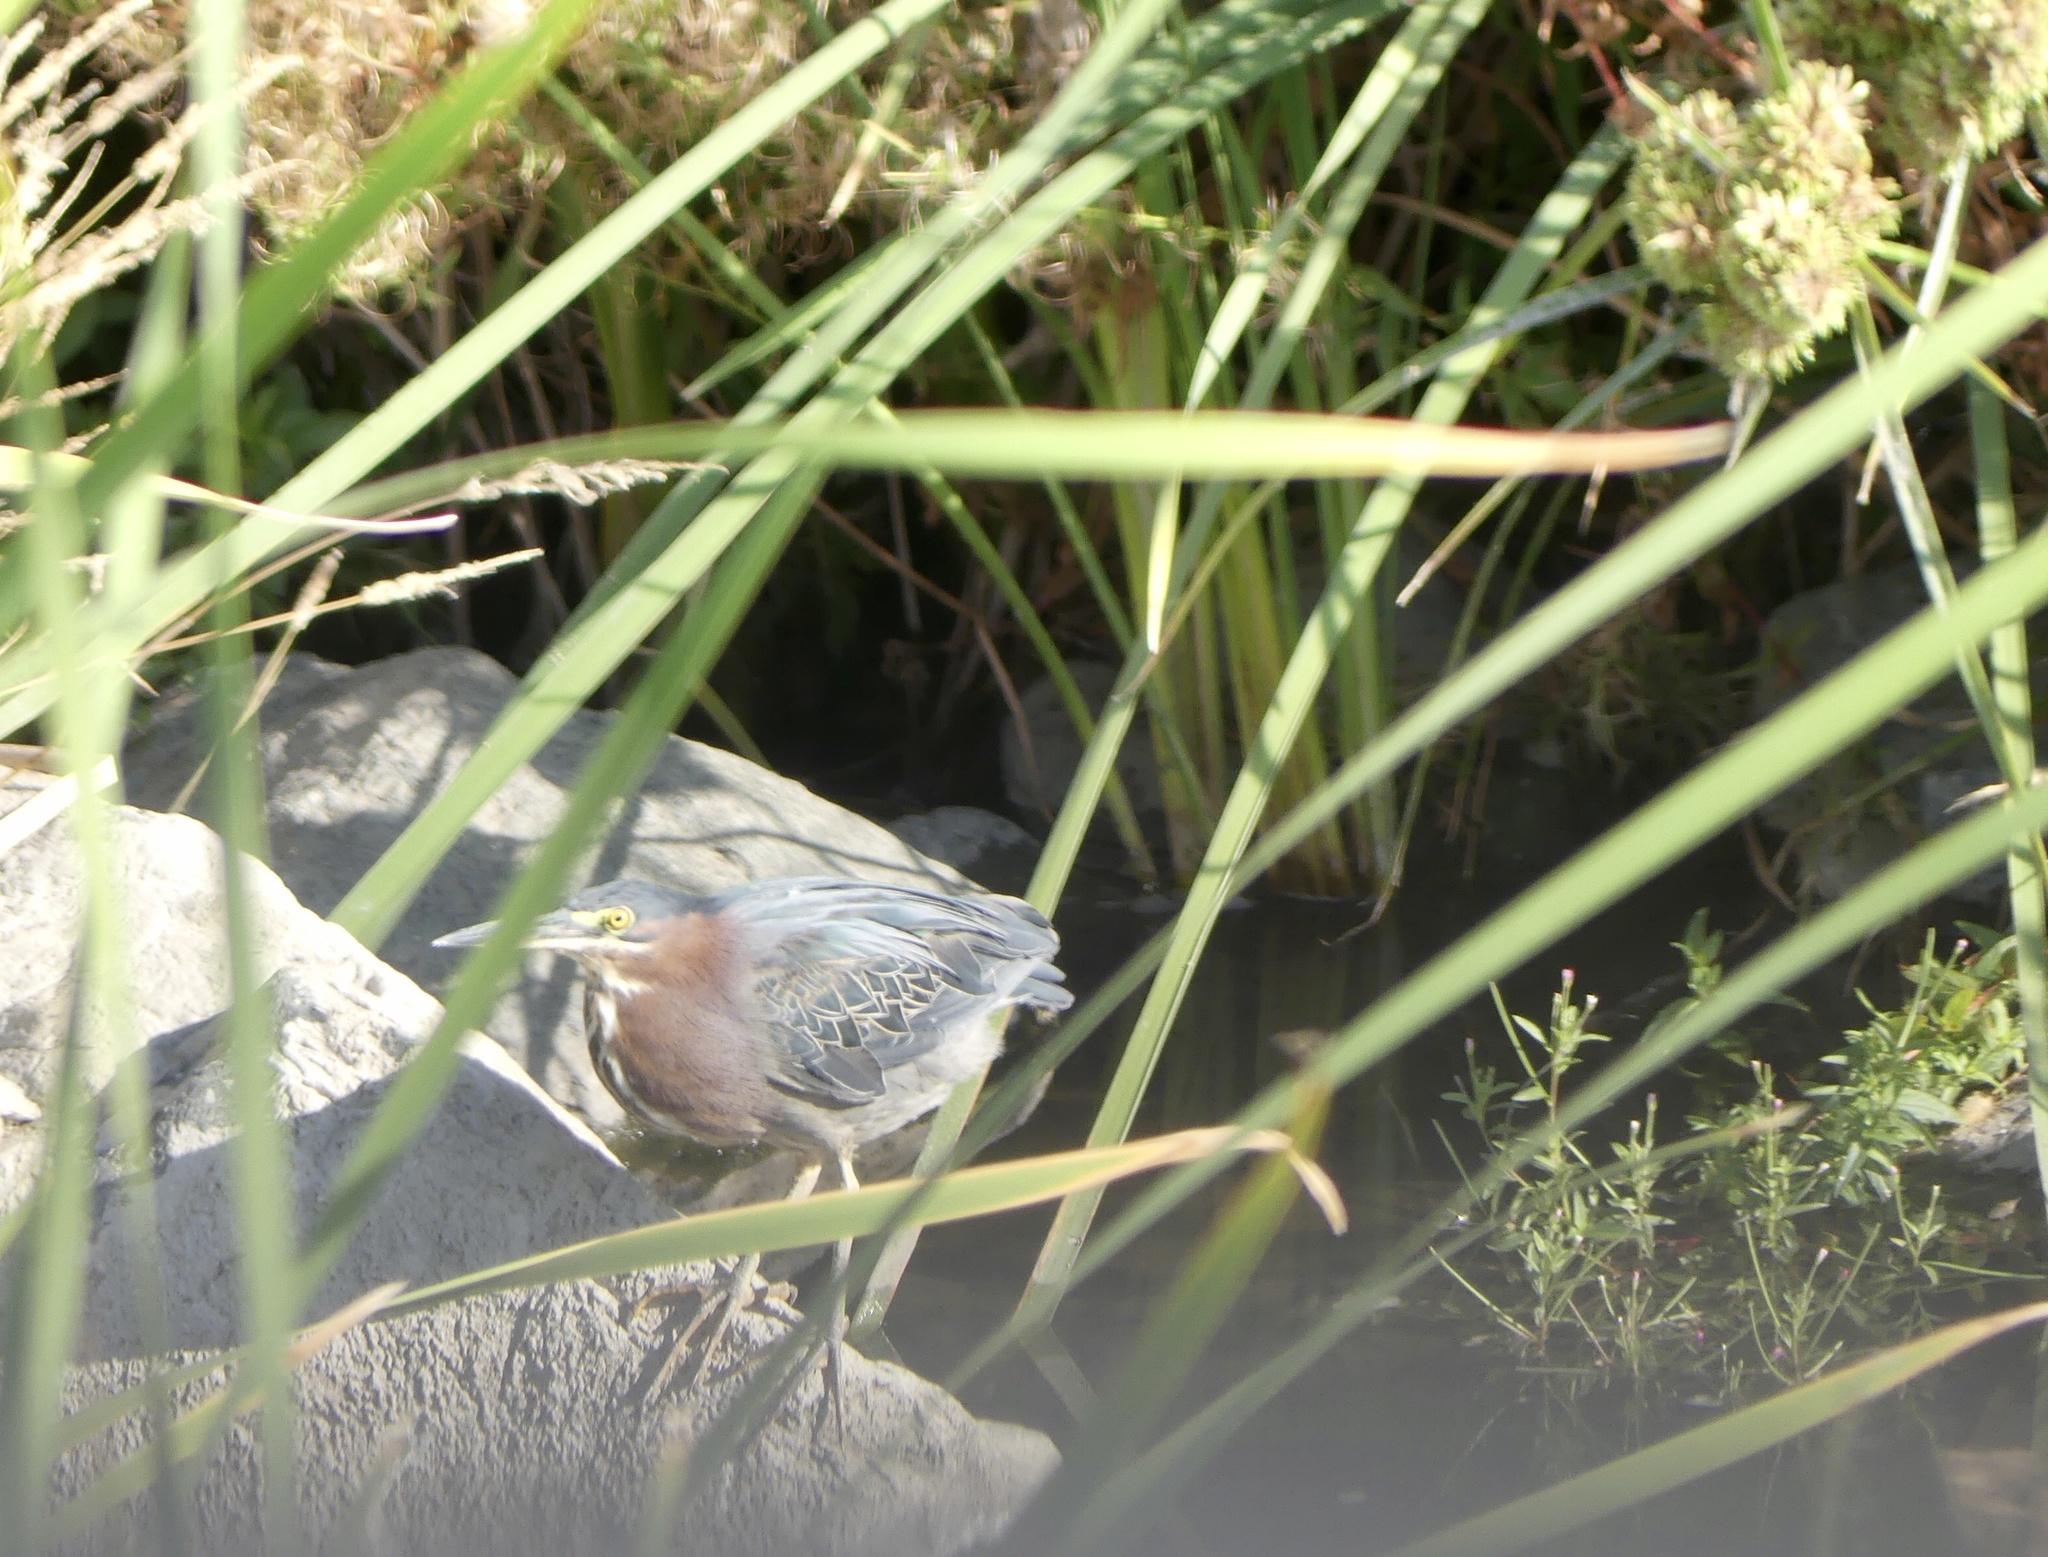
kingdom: Animalia
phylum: Chordata
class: Aves
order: Pelecaniformes
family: Ardeidae
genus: Butorides
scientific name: Butorides virescens
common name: Green heron
